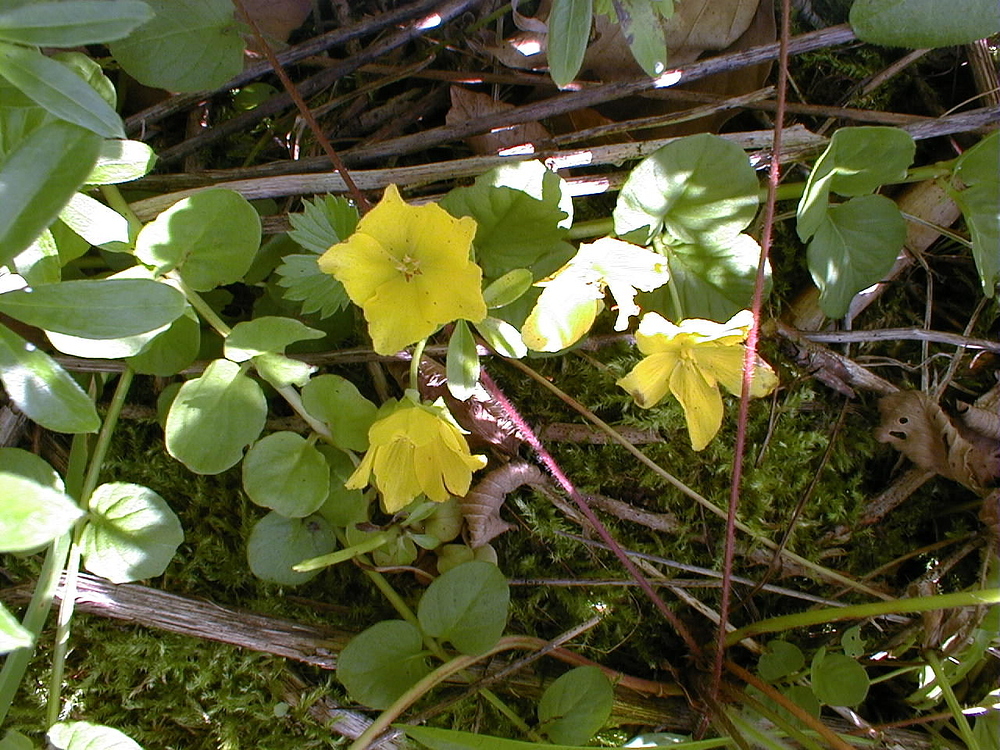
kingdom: Plantae
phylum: Tracheophyta
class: Magnoliopsida
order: Ericales
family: Primulaceae
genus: Lysimachia
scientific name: Lysimachia nummularia
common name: Moneywort
